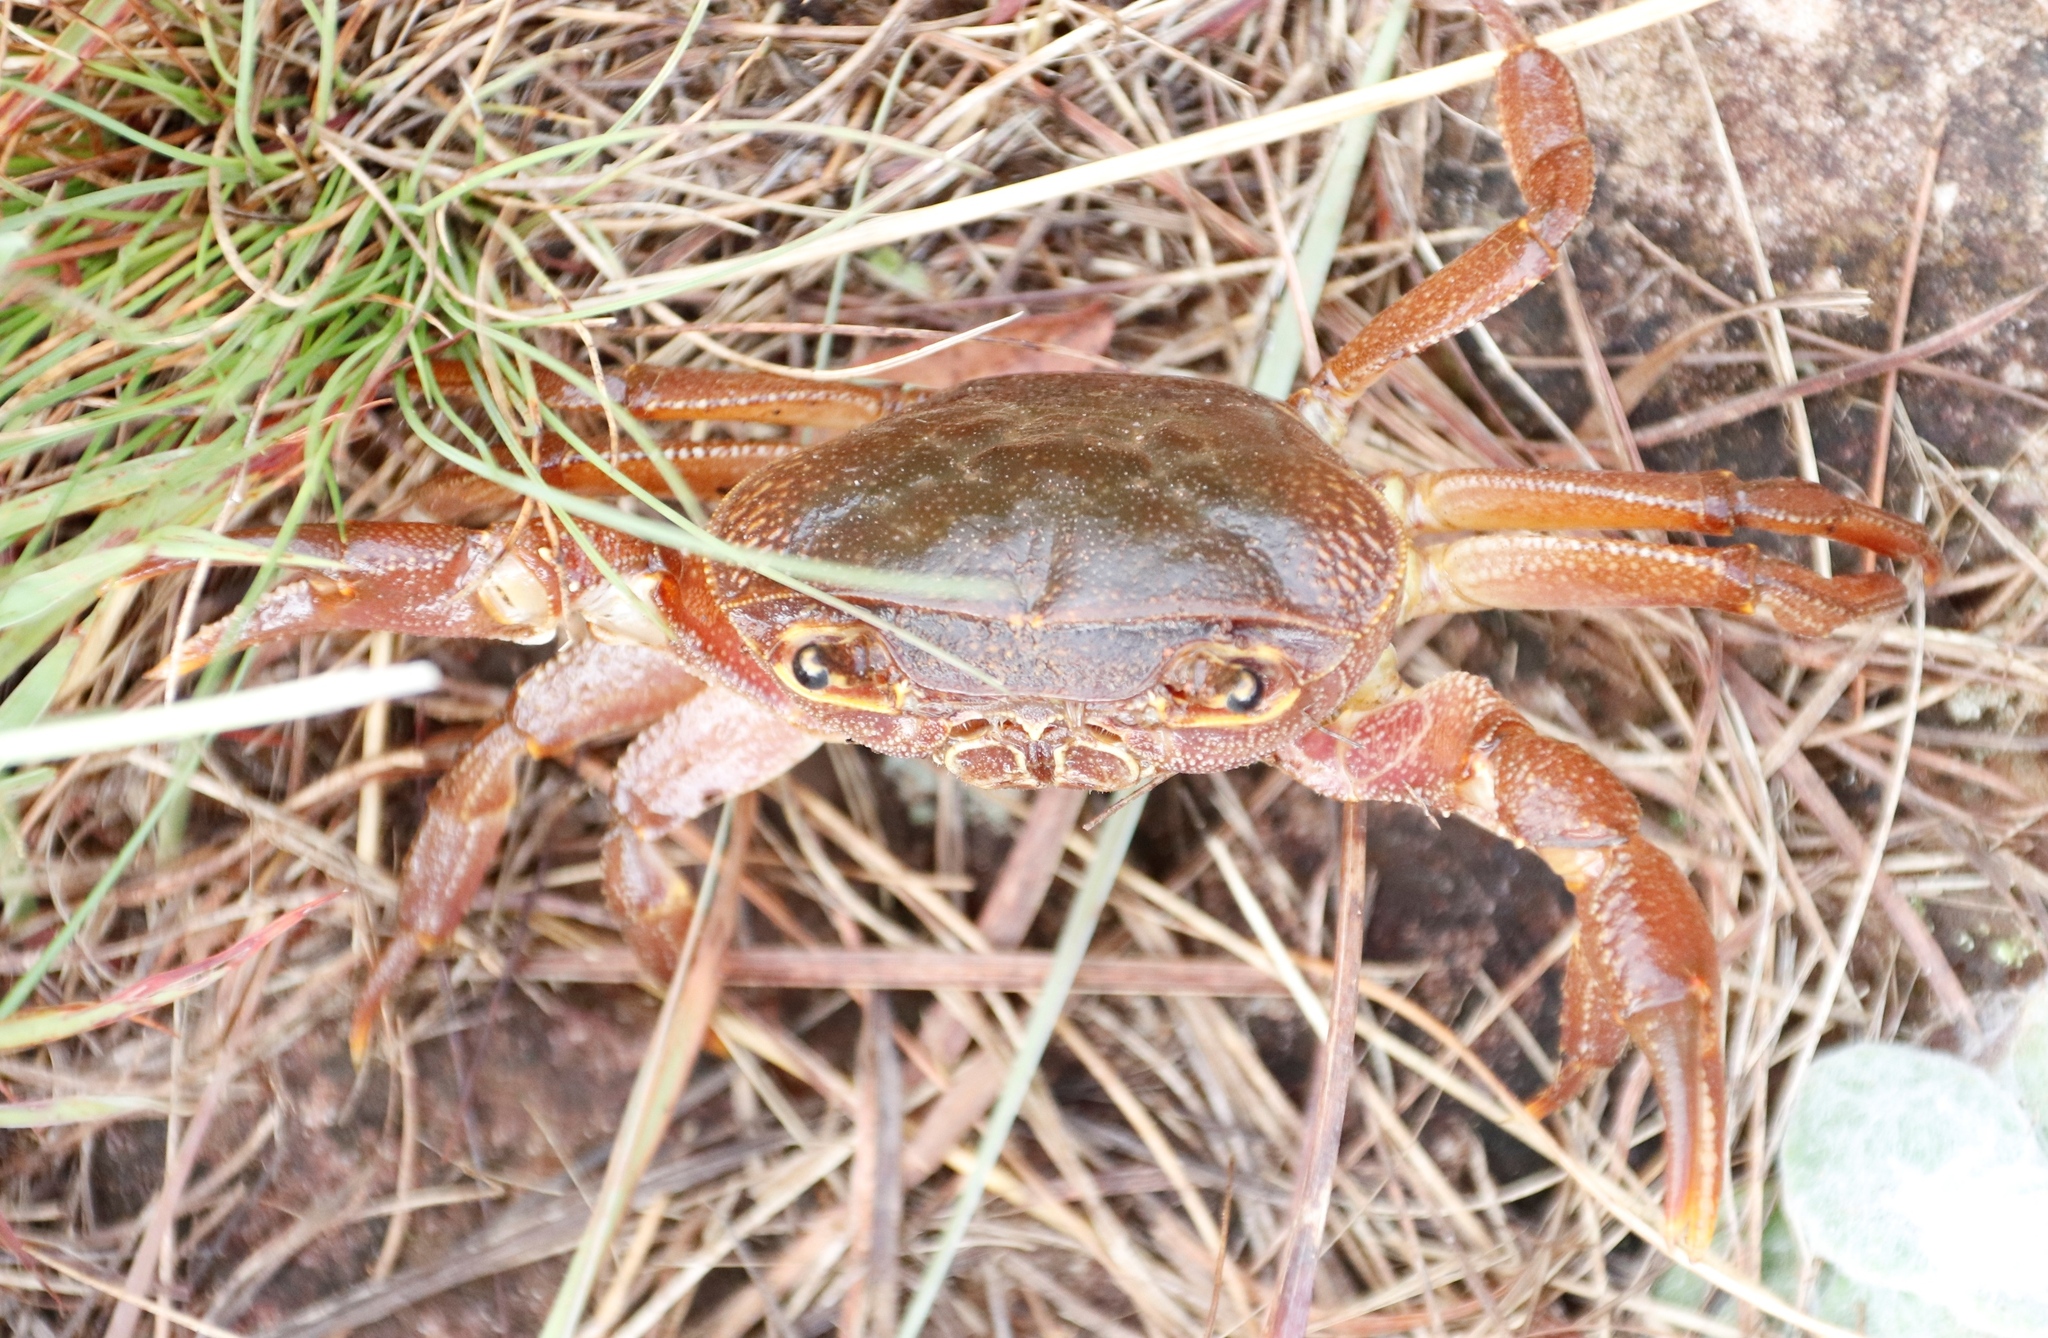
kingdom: Animalia
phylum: Arthropoda
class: Malacostraca
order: Decapoda
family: Potamonautidae
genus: Potamonautes
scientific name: Potamonautes danielsi
